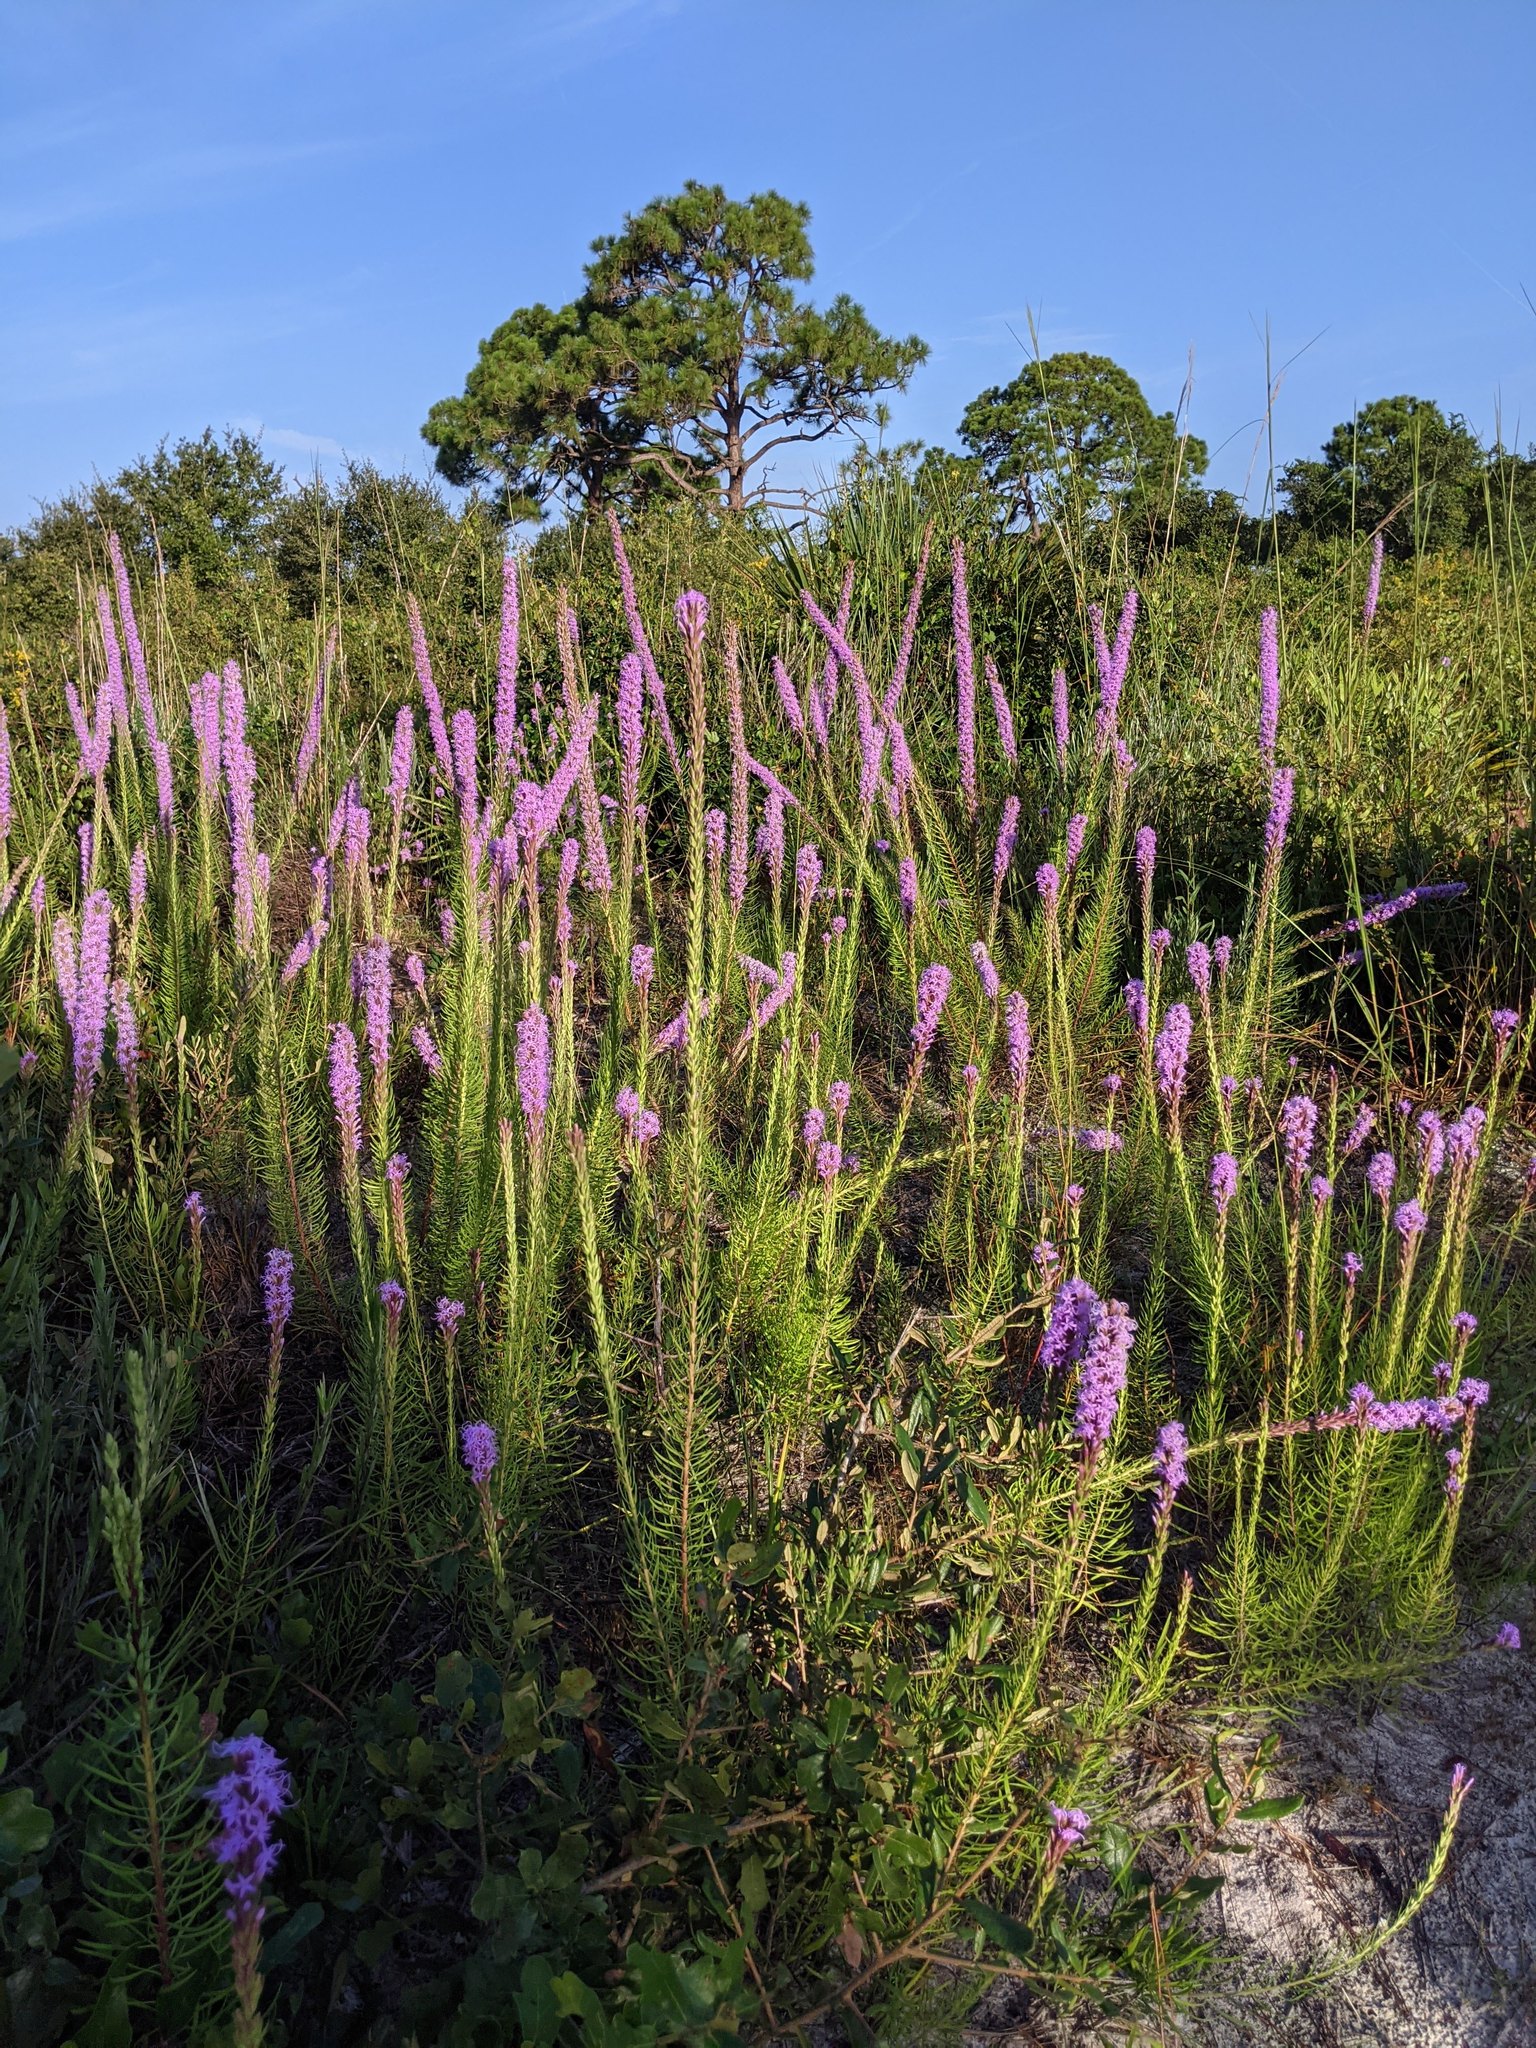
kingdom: Plantae
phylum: Tracheophyta
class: Magnoliopsida
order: Asterales
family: Asteraceae
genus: Liatris
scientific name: Liatris chapmanii
